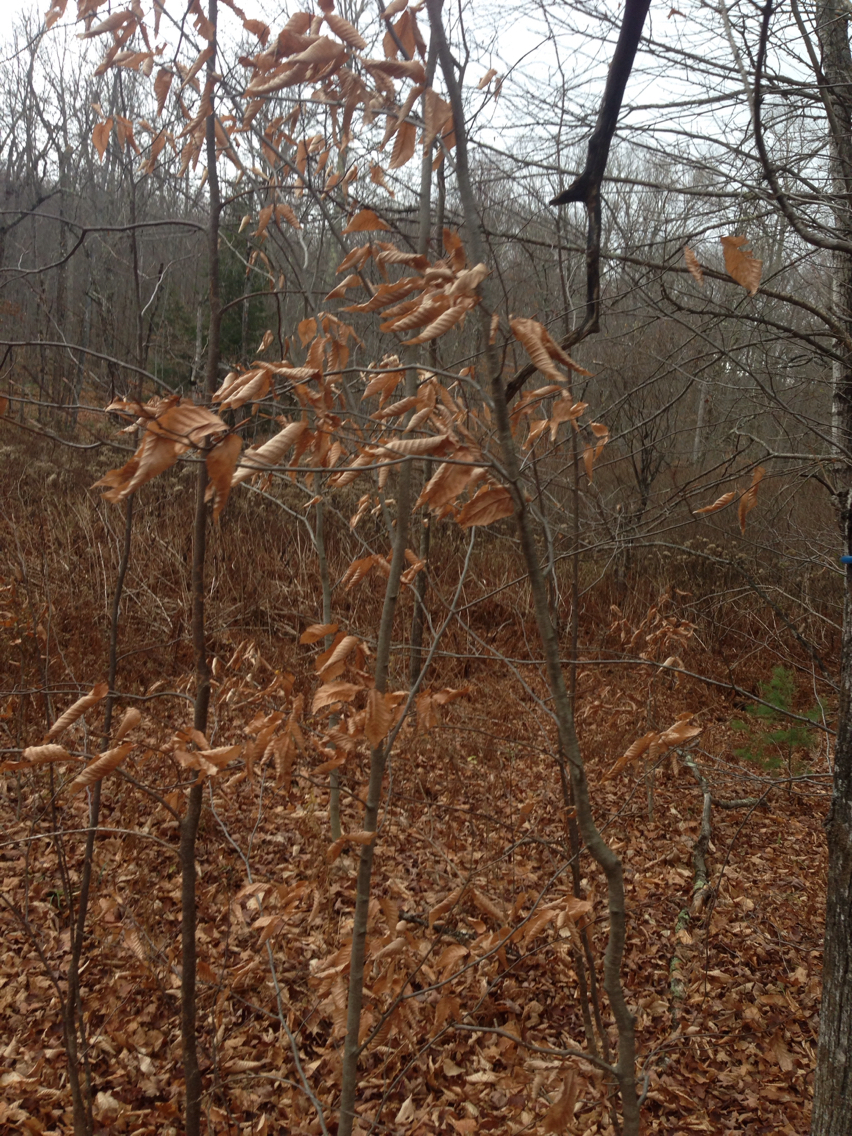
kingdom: Plantae
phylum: Tracheophyta
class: Magnoliopsida
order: Fagales
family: Fagaceae
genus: Fagus
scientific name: Fagus grandifolia
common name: American beech
